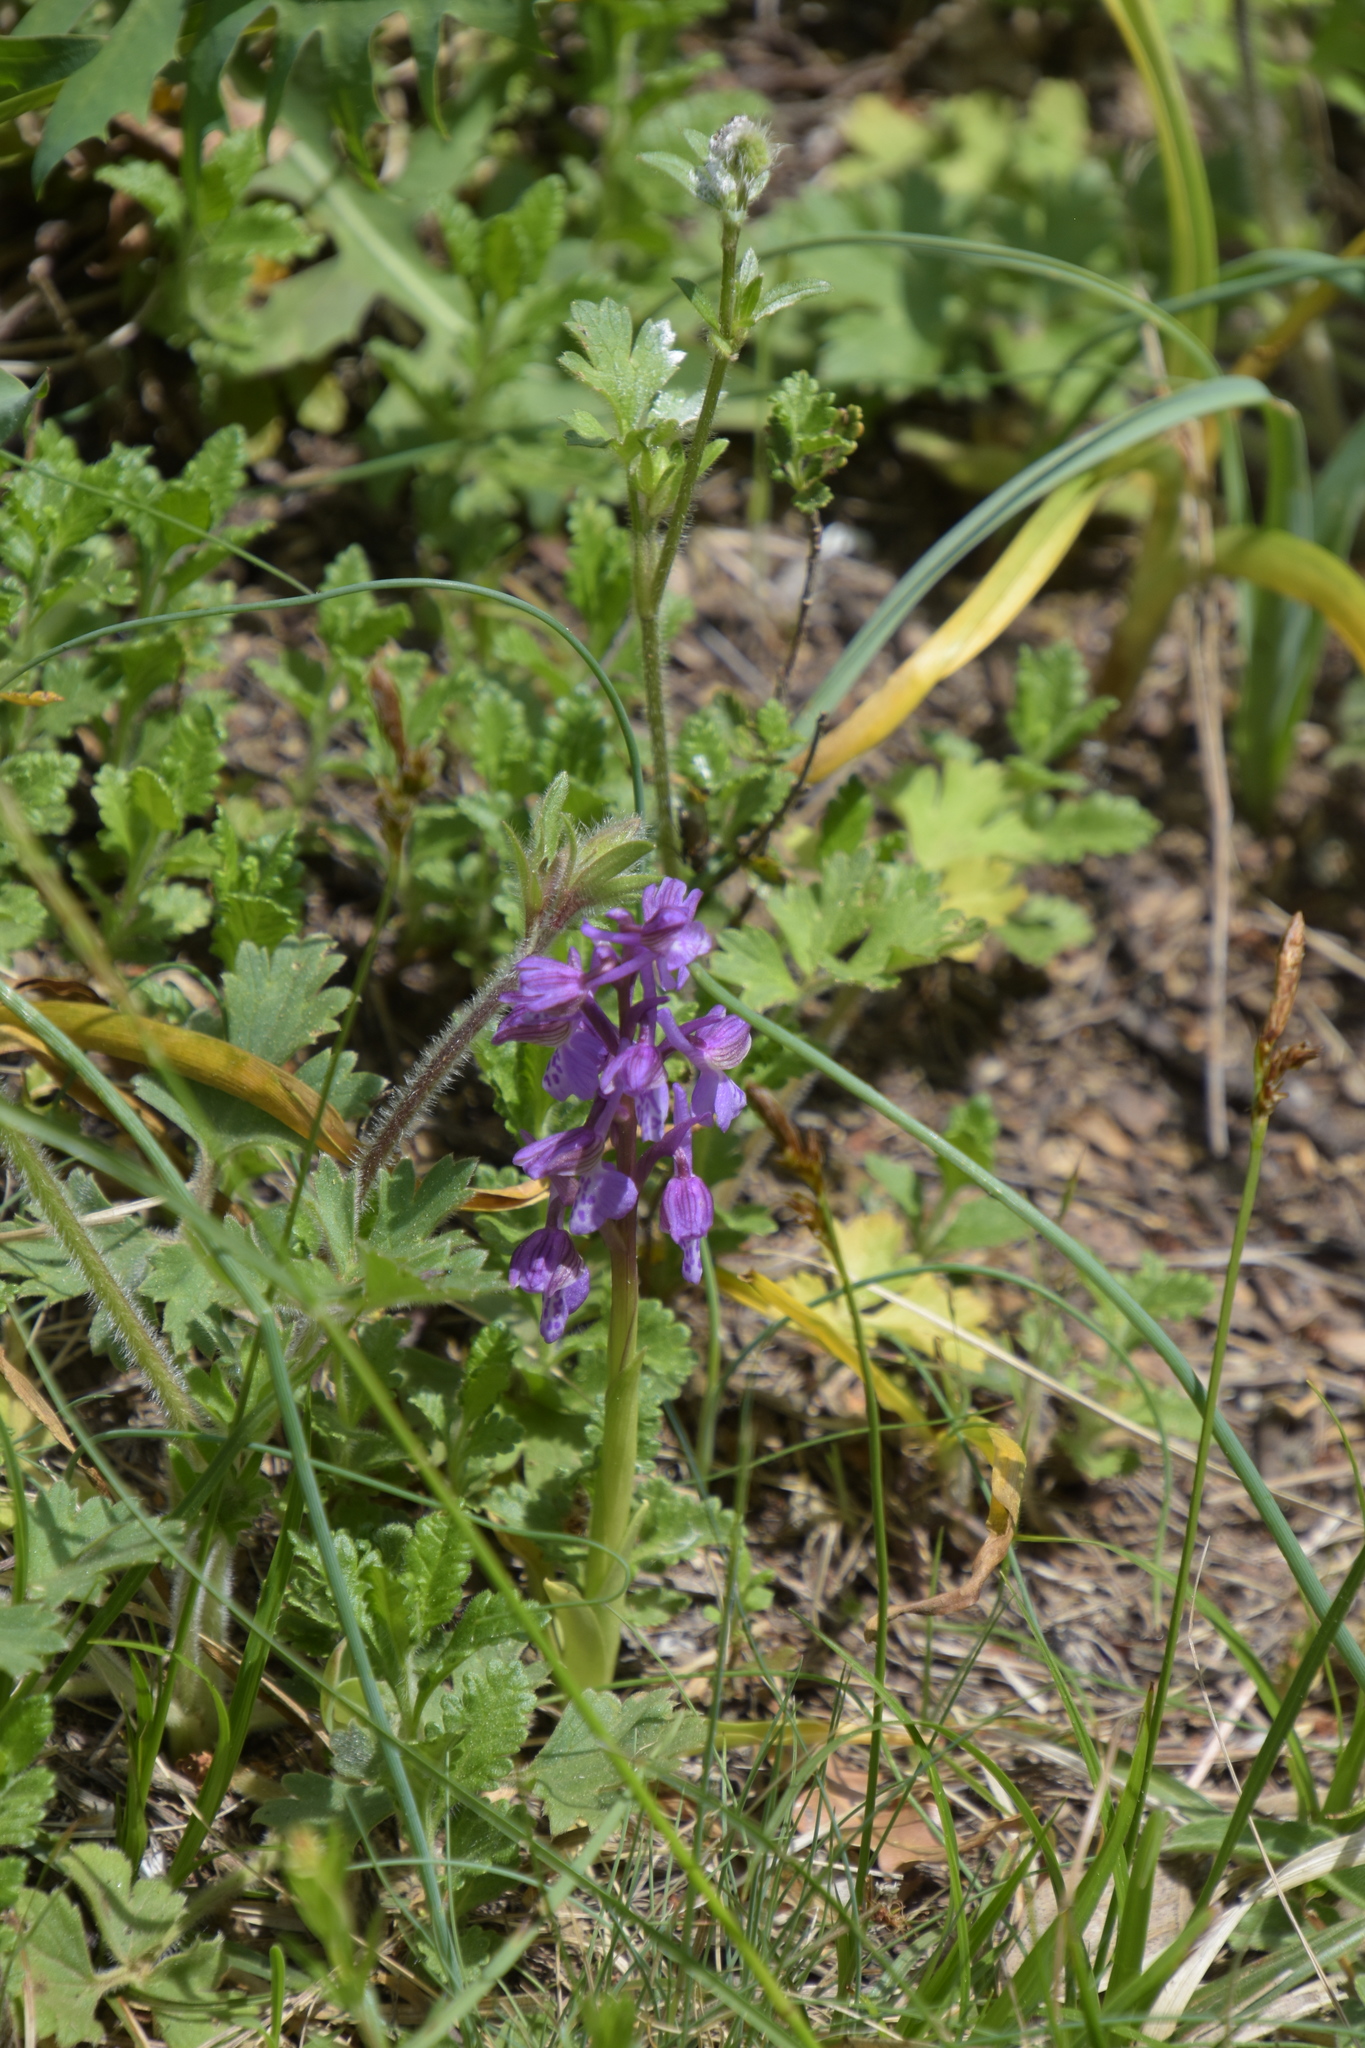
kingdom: Plantae
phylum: Tracheophyta
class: Liliopsida
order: Asparagales
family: Orchidaceae
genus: Anacamptis
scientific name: Anacamptis morio
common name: Green-winged orchid
